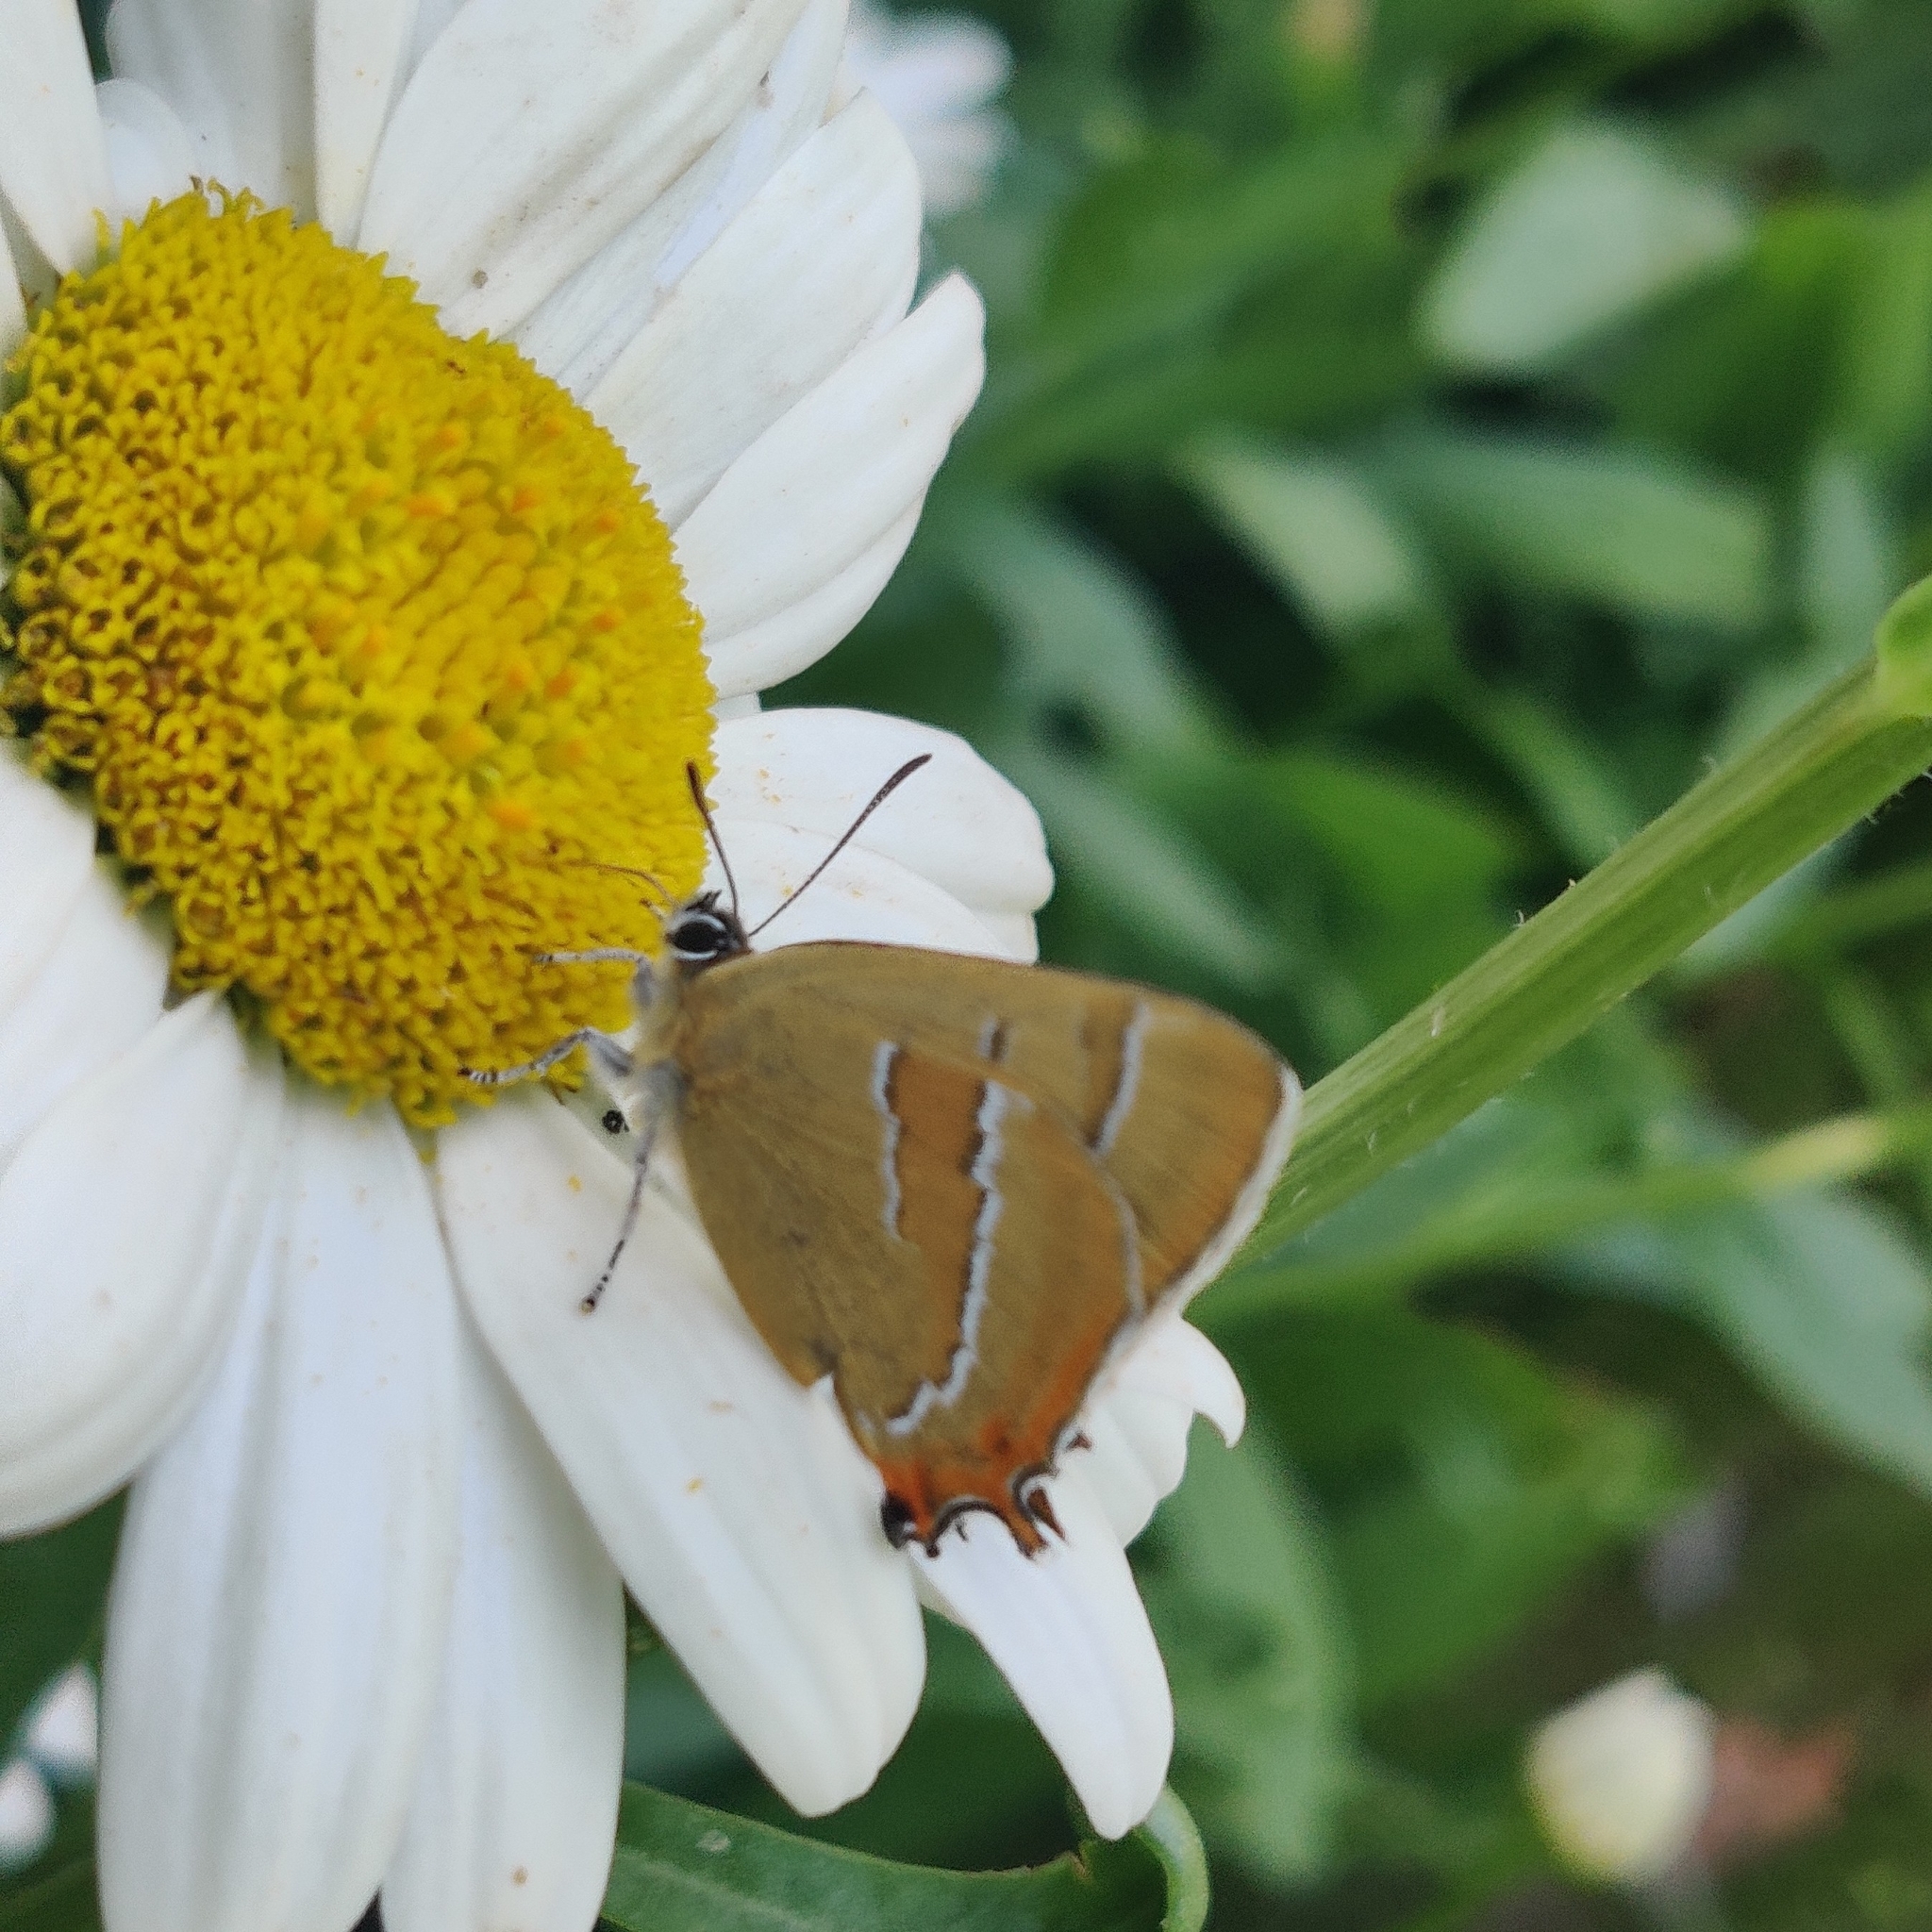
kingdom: Animalia
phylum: Arthropoda
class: Insecta
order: Lepidoptera
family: Lycaenidae
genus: Thecla
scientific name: Thecla betulae
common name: Brown hairstreak
